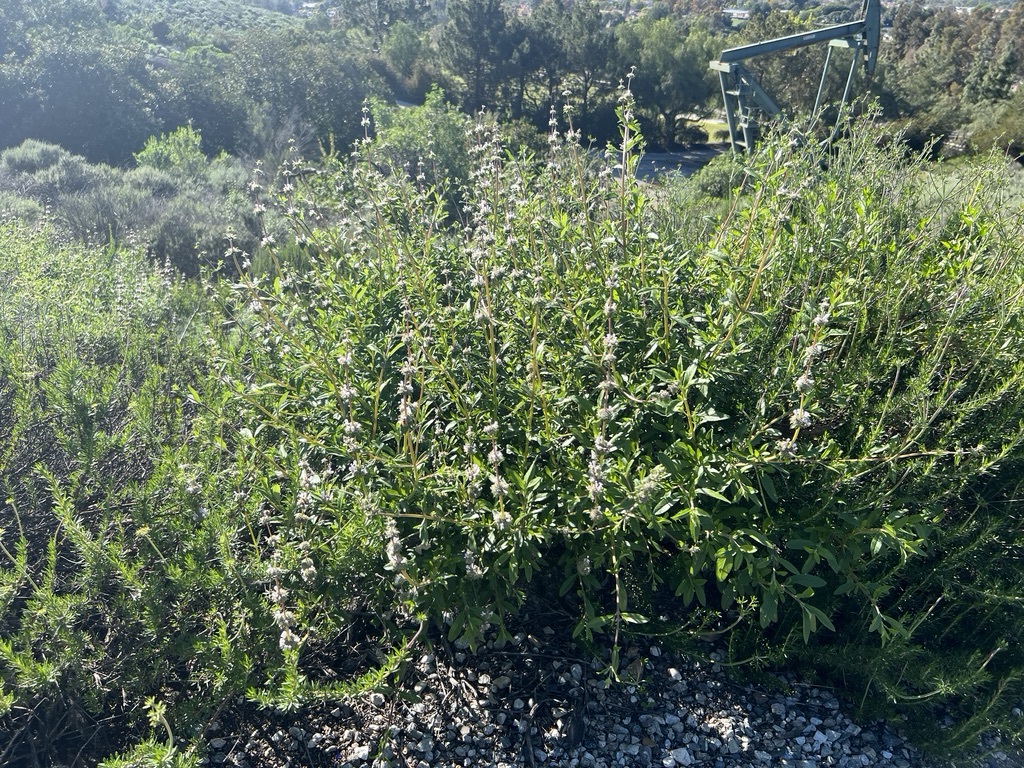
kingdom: Plantae
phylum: Tracheophyta
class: Magnoliopsida
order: Lamiales
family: Lamiaceae
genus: Salvia
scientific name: Salvia mellifera
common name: Black sage
